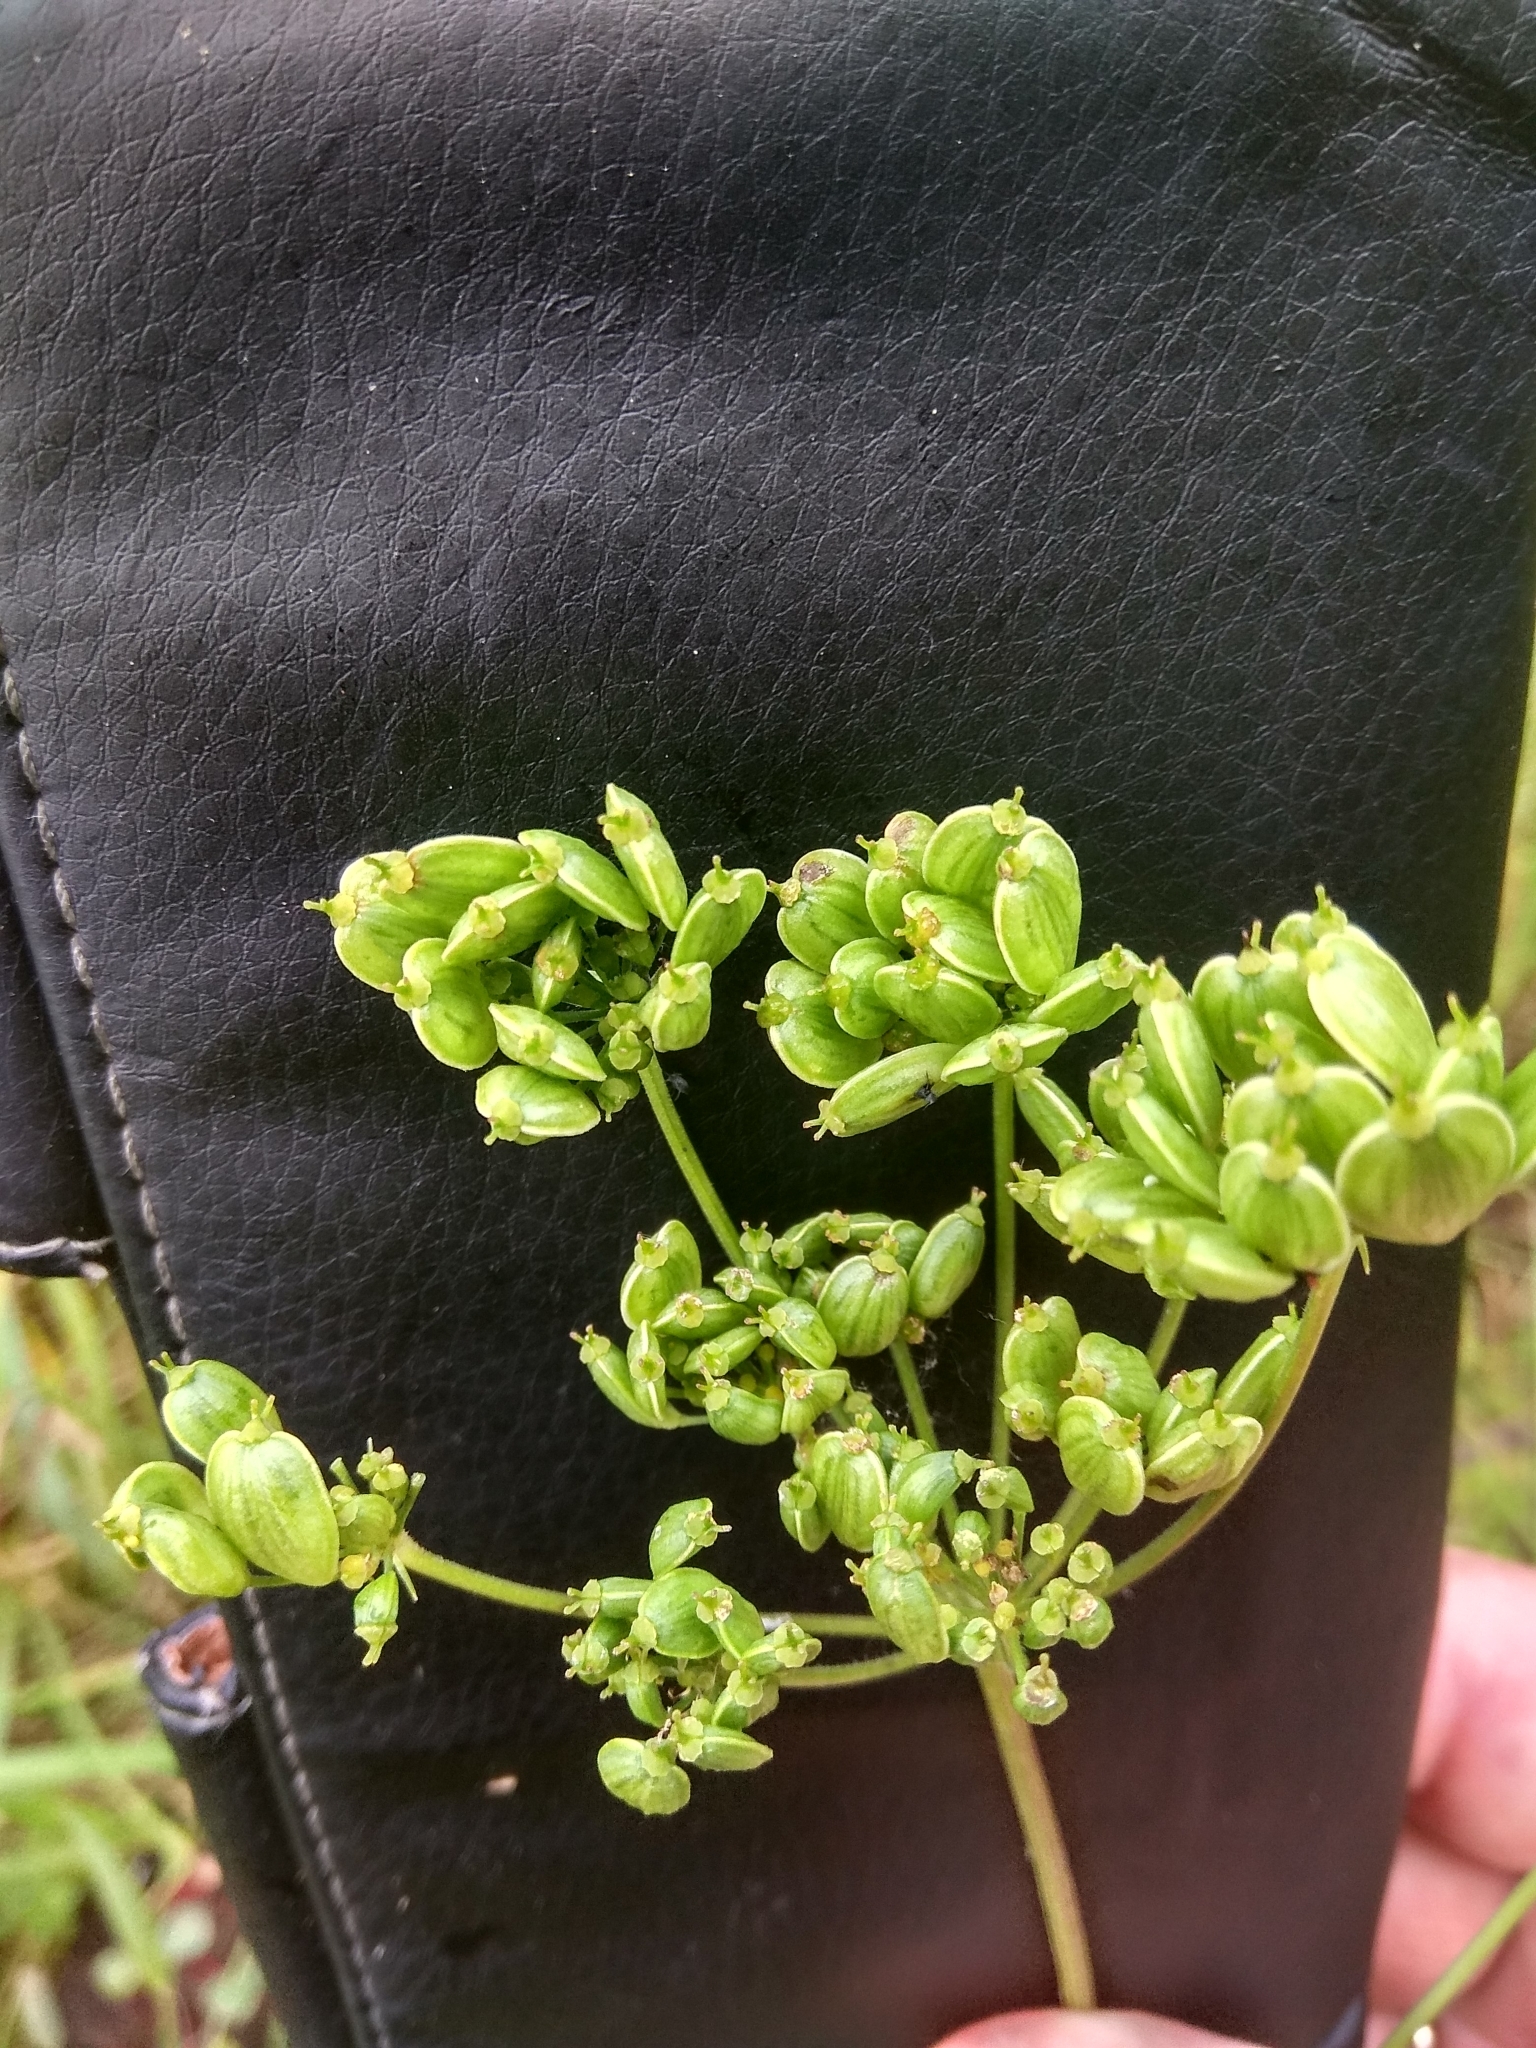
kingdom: Plantae
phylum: Tracheophyta
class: Magnoliopsida
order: Apiales
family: Apiaceae
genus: Heracleum
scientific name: Heracleum sphondylium
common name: Hogweed
